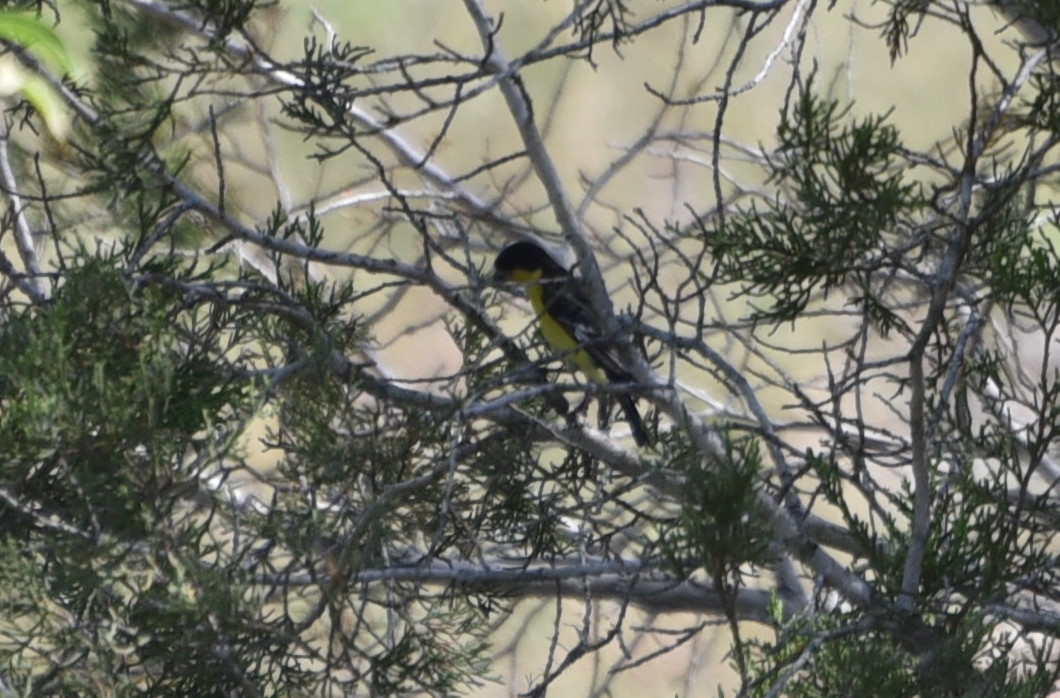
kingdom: Animalia
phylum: Chordata
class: Aves
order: Passeriformes
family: Fringillidae
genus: Spinus
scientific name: Spinus psaltria
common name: Lesser goldfinch
